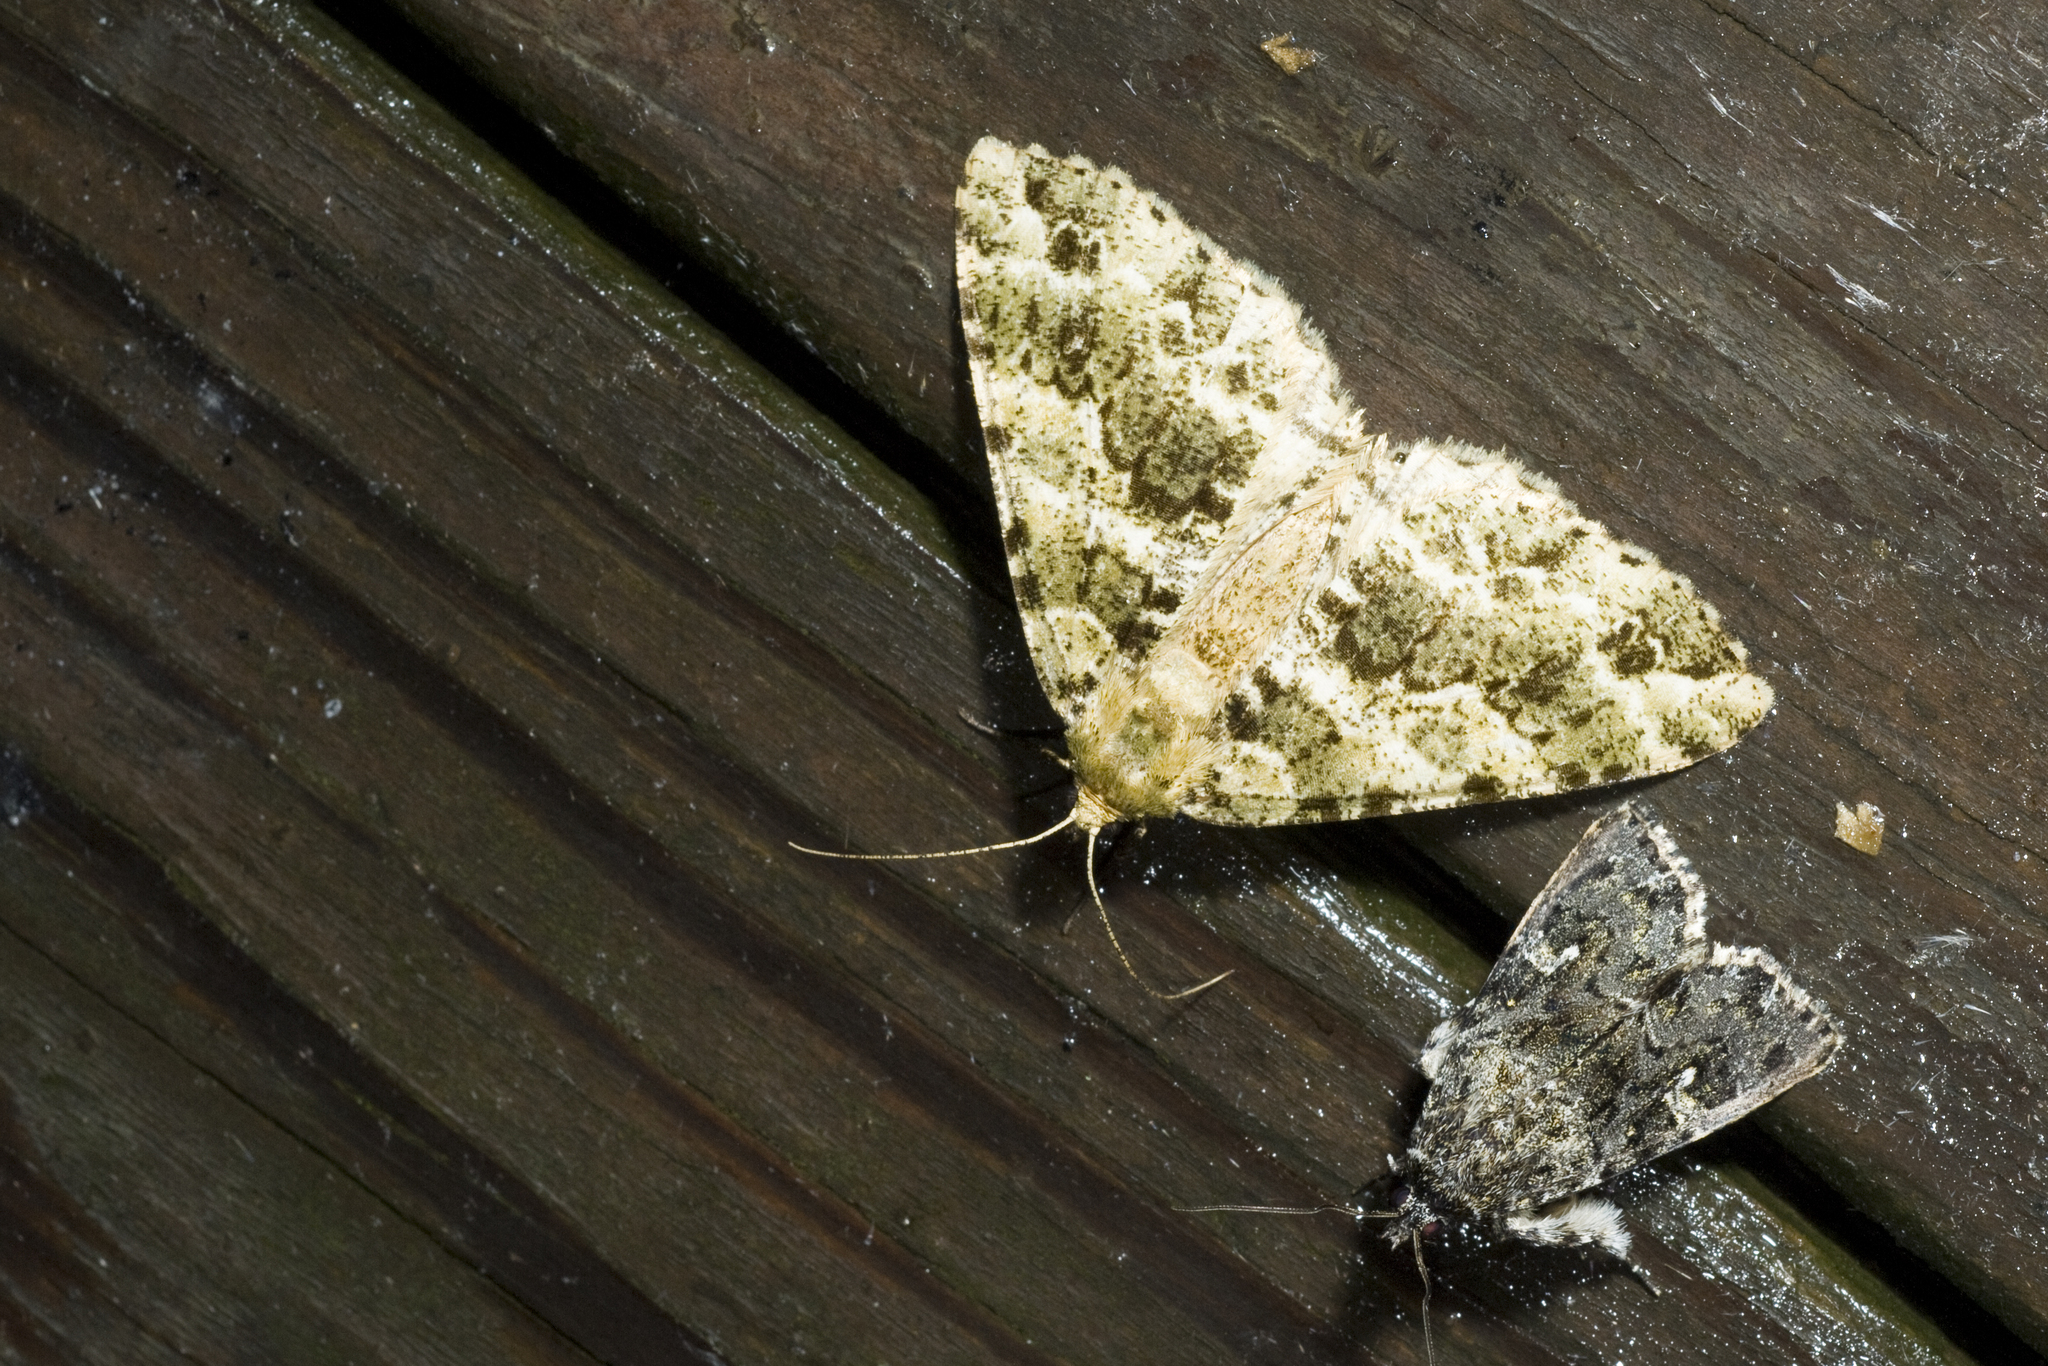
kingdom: Animalia
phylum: Arthropoda
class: Insecta
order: Lepidoptera
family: Geometridae
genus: Arichanna
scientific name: Arichanna marginata
